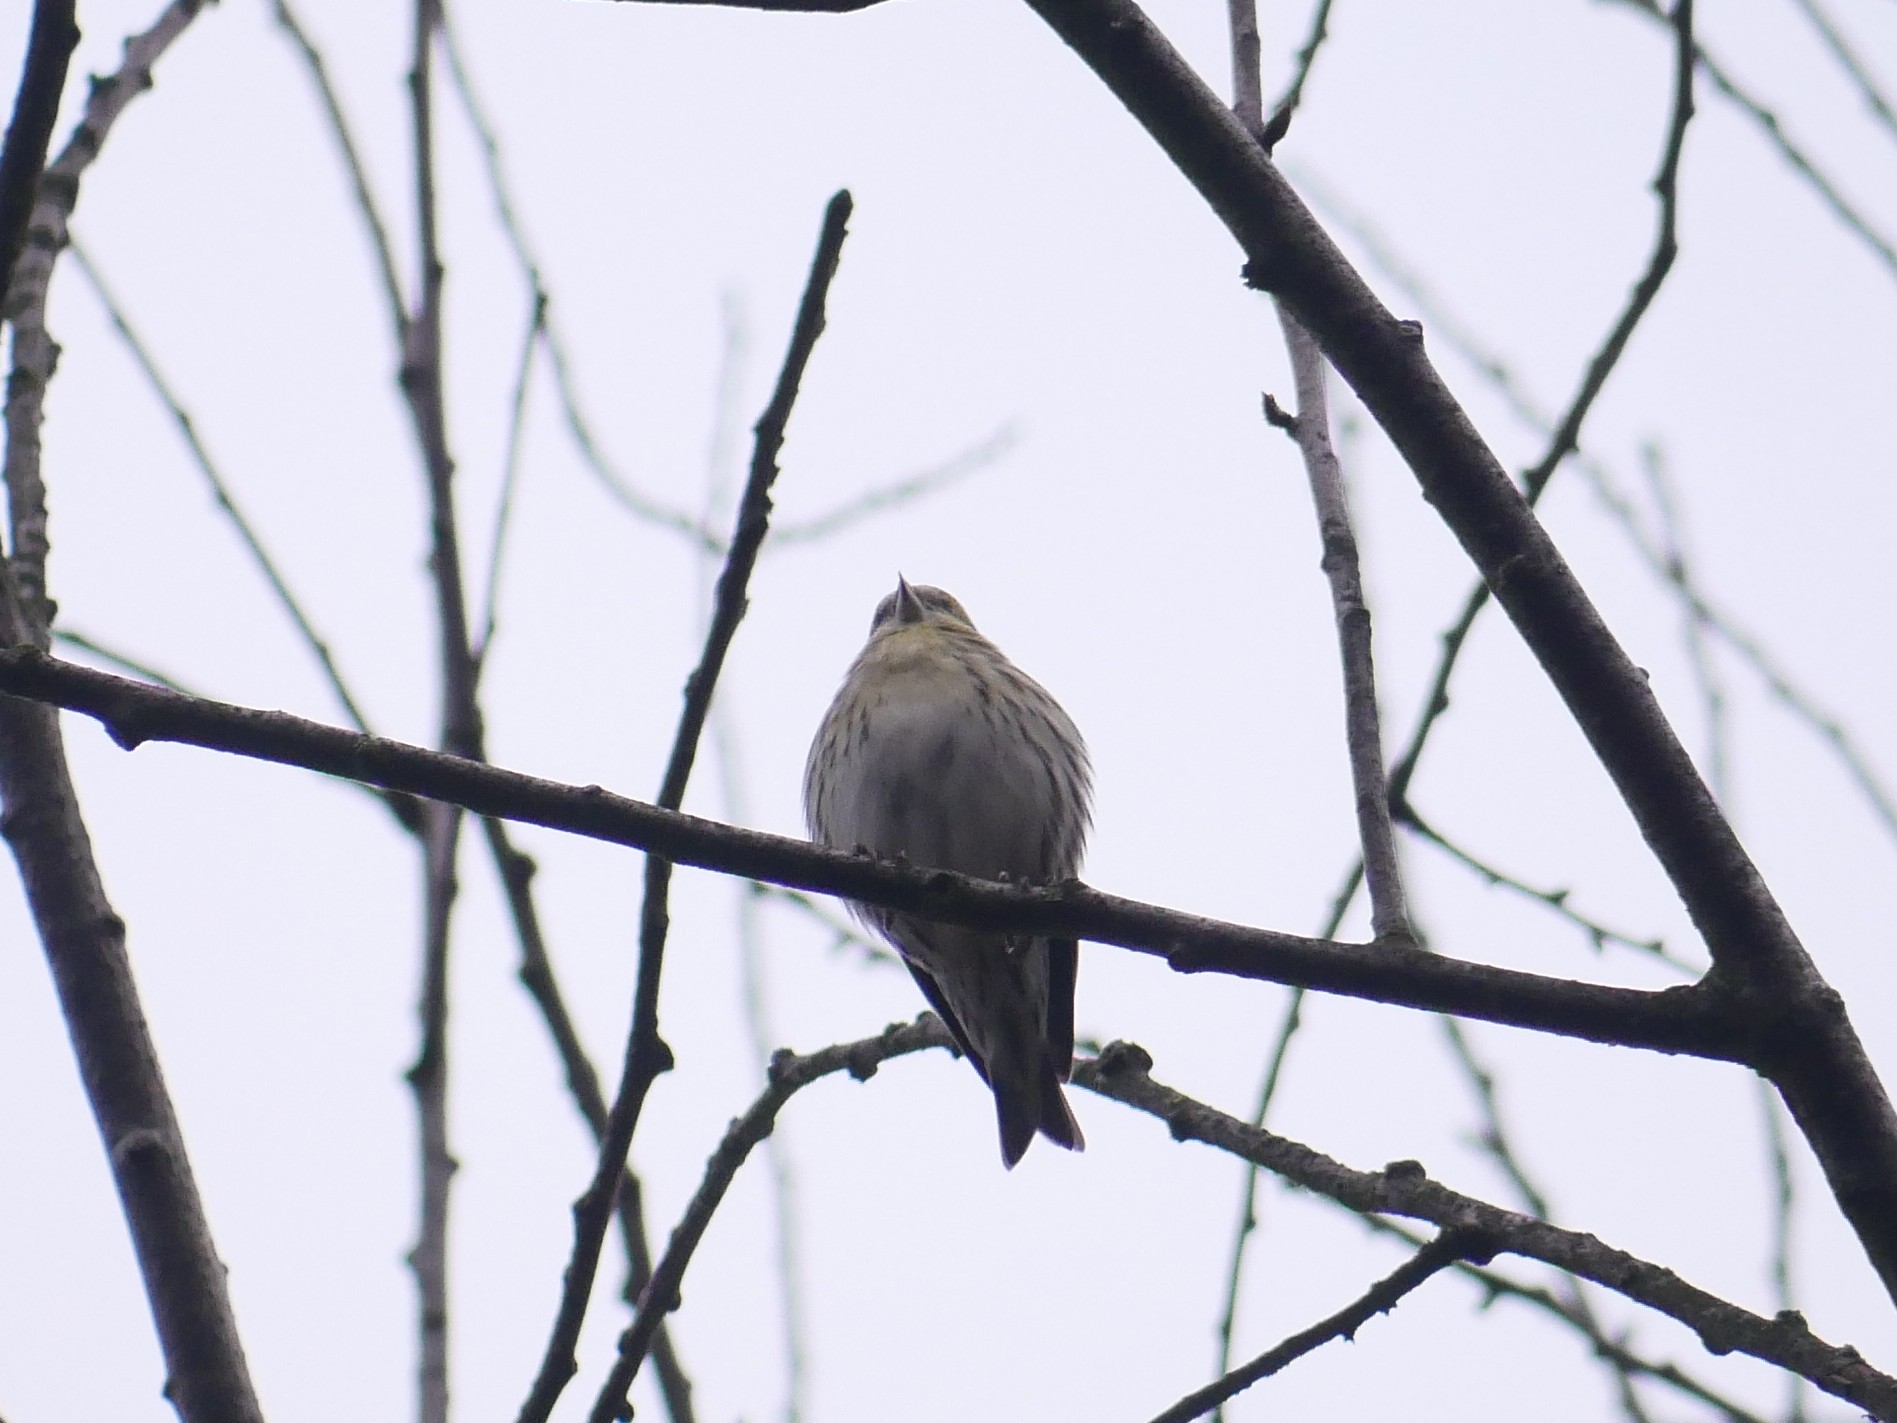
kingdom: Animalia
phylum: Chordata
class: Aves
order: Passeriformes
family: Fringillidae
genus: Spinus
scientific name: Spinus spinus
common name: Eurasian siskin
